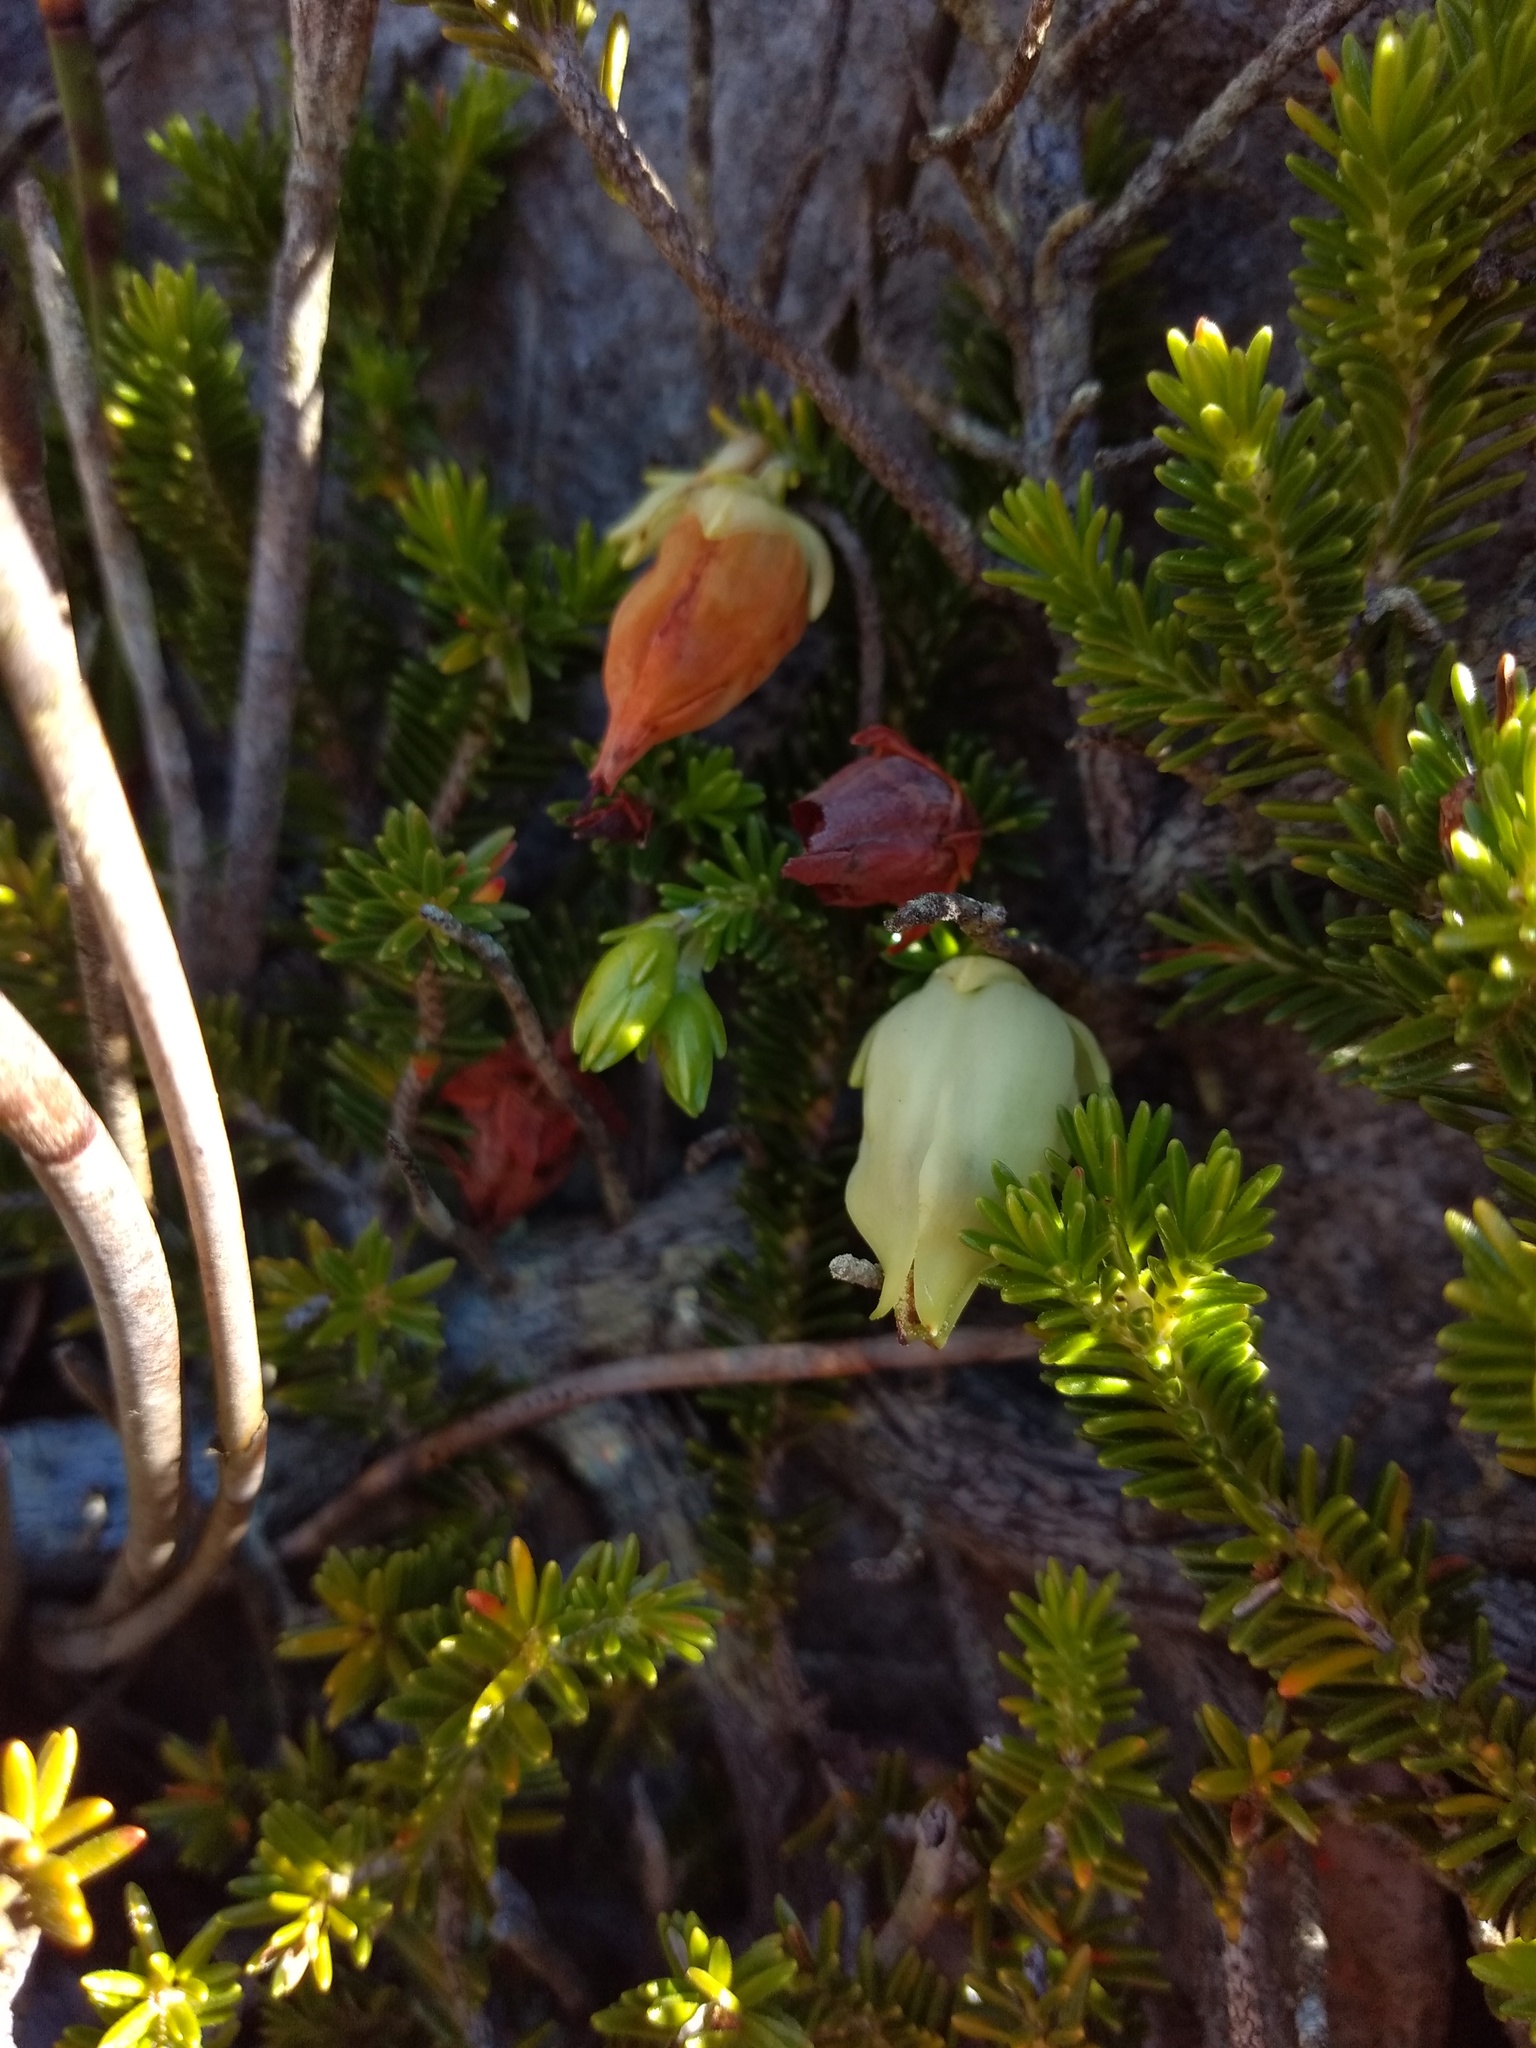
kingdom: Plantae
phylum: Tracheophyta
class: Magnoliopsida
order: Ericales
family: Ericaceae
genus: Erica
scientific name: Erica halicacaba
